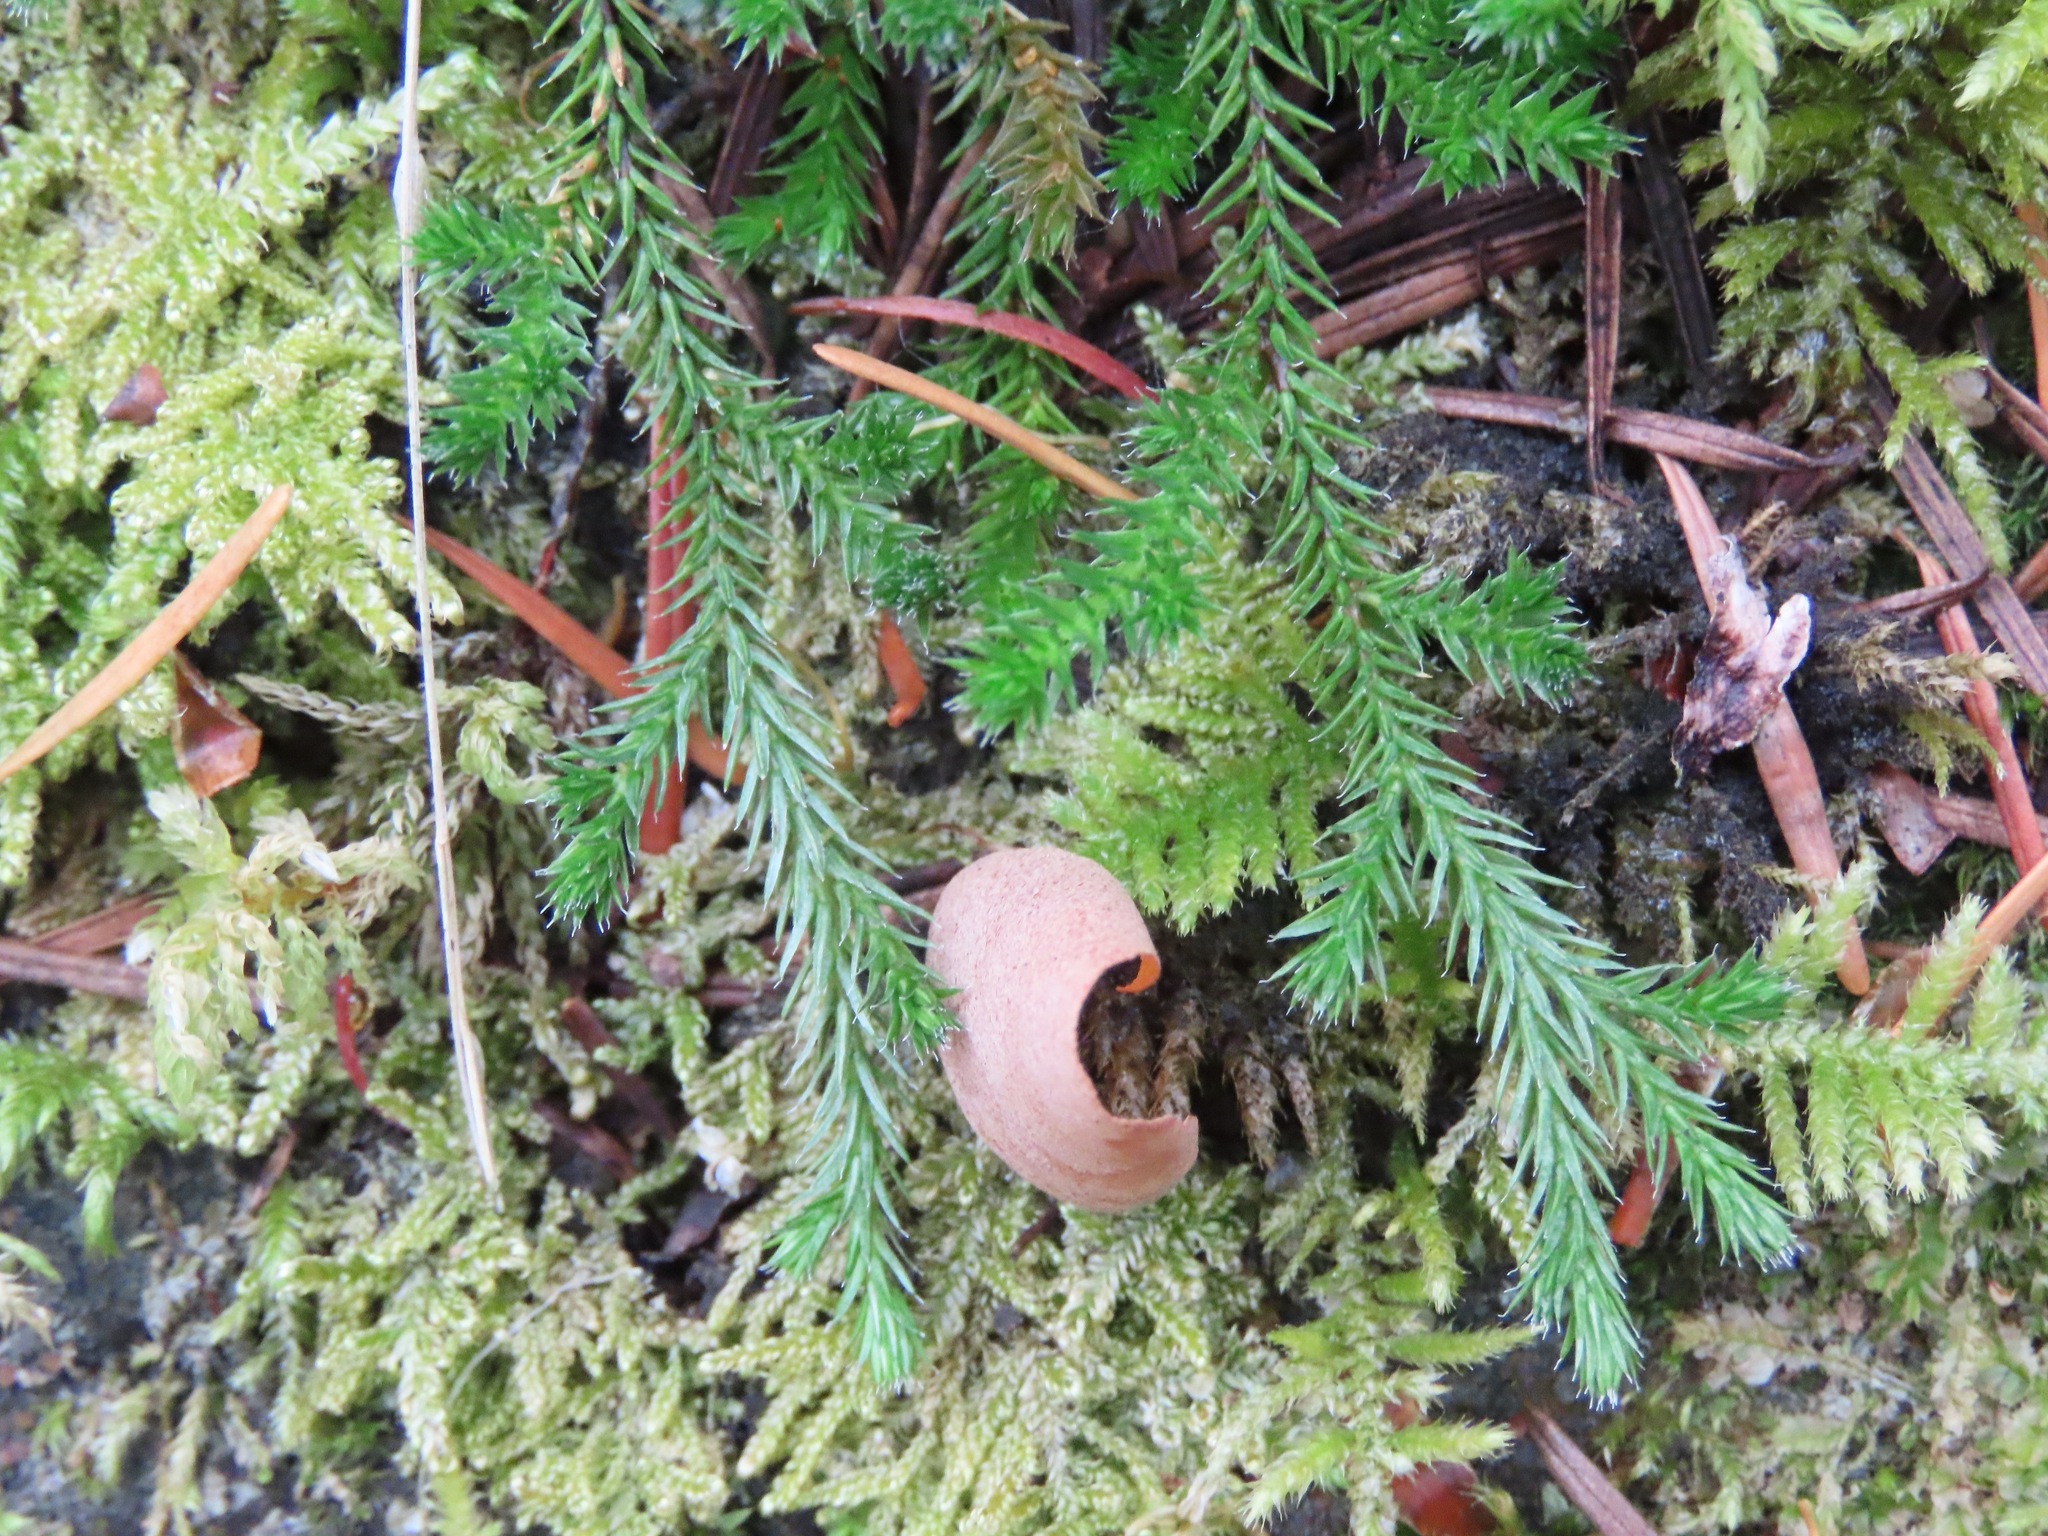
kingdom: Plantae
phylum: Tracheophyta
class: Lycopodiopsida
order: Selaginellales
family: Selaginellaceae
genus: Selaginella
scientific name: Selaginella wallacei
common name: Wallace's selaginella
